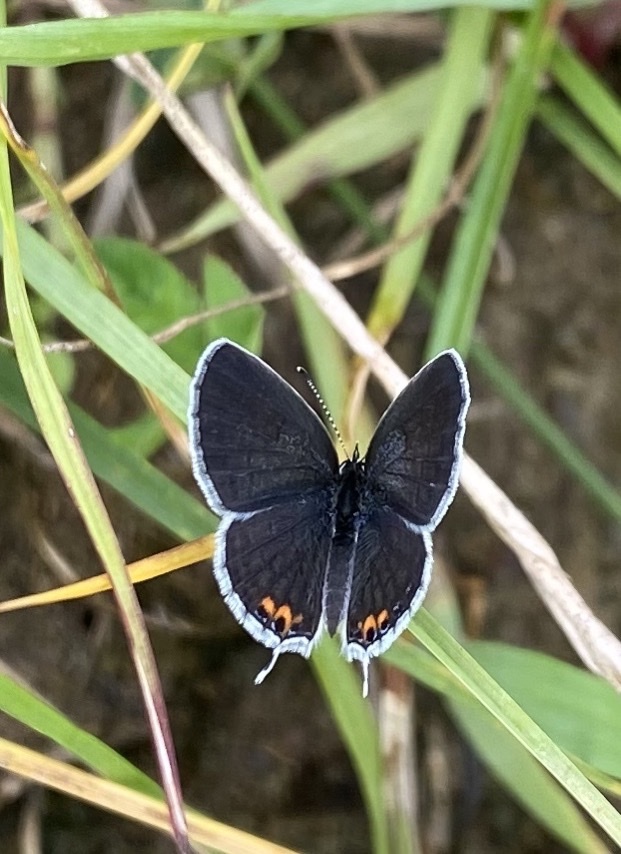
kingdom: Animalia
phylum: Arthropoda
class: Insecta
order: Lepidoptera
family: Lycaenidae
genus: Elkalyce
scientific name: Elkalyce comyntas
